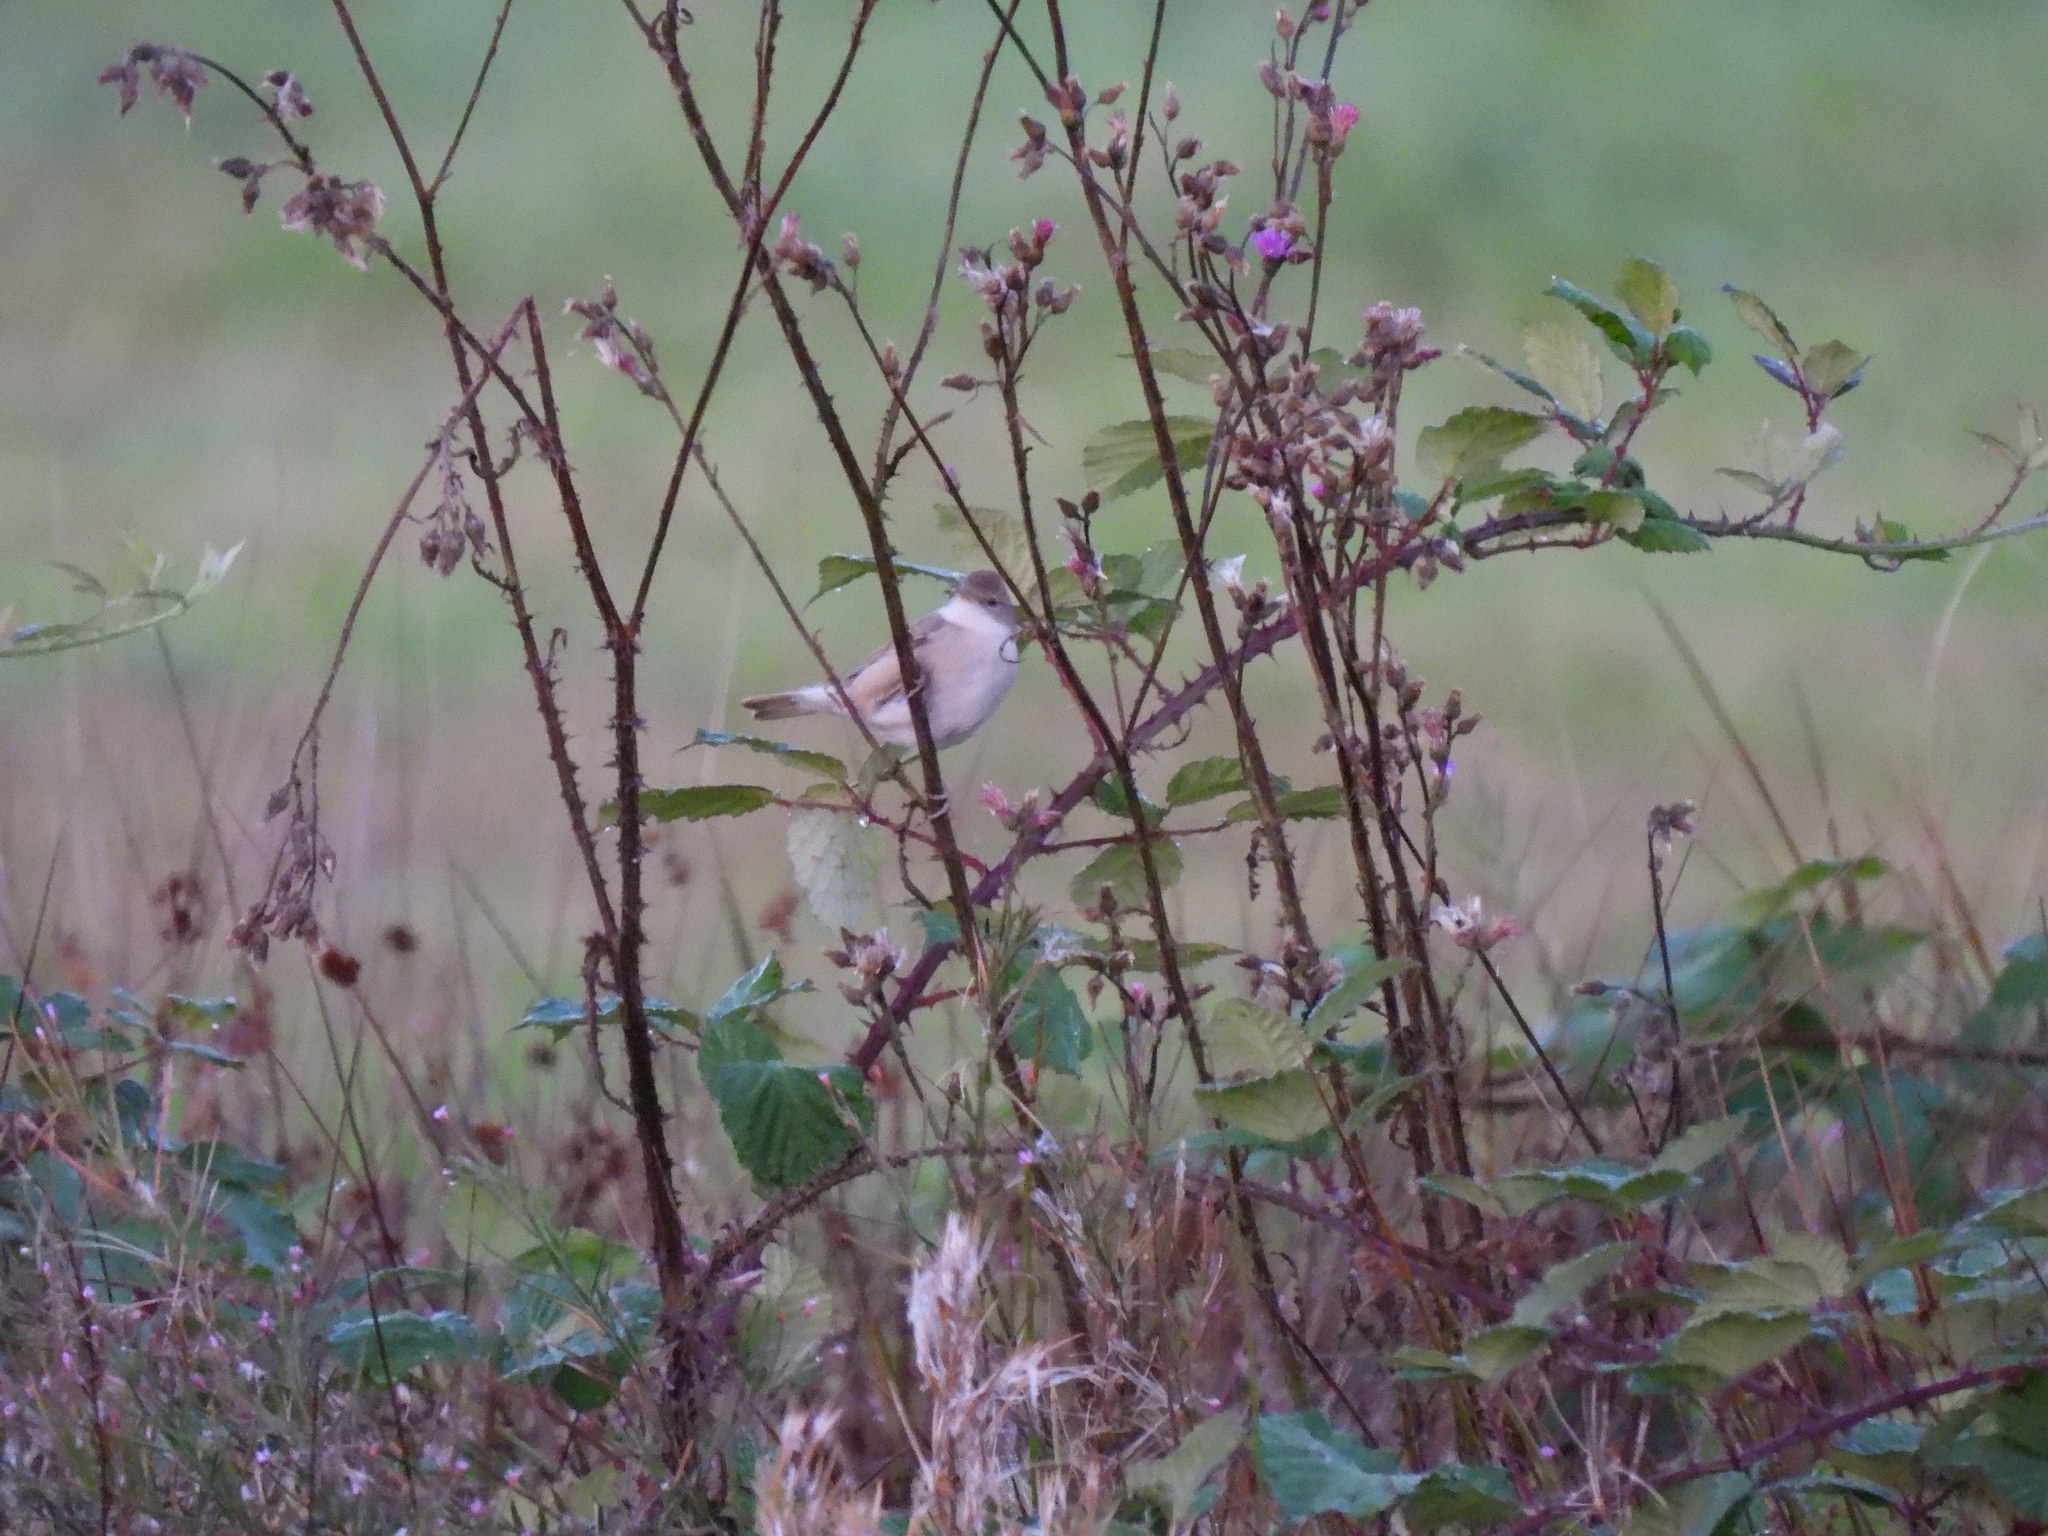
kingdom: Animalia
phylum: Chordata
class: Aves
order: Passeriformes
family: Sylviidae
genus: Sylvia
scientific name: Sylvia communis
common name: Common whitethroat
